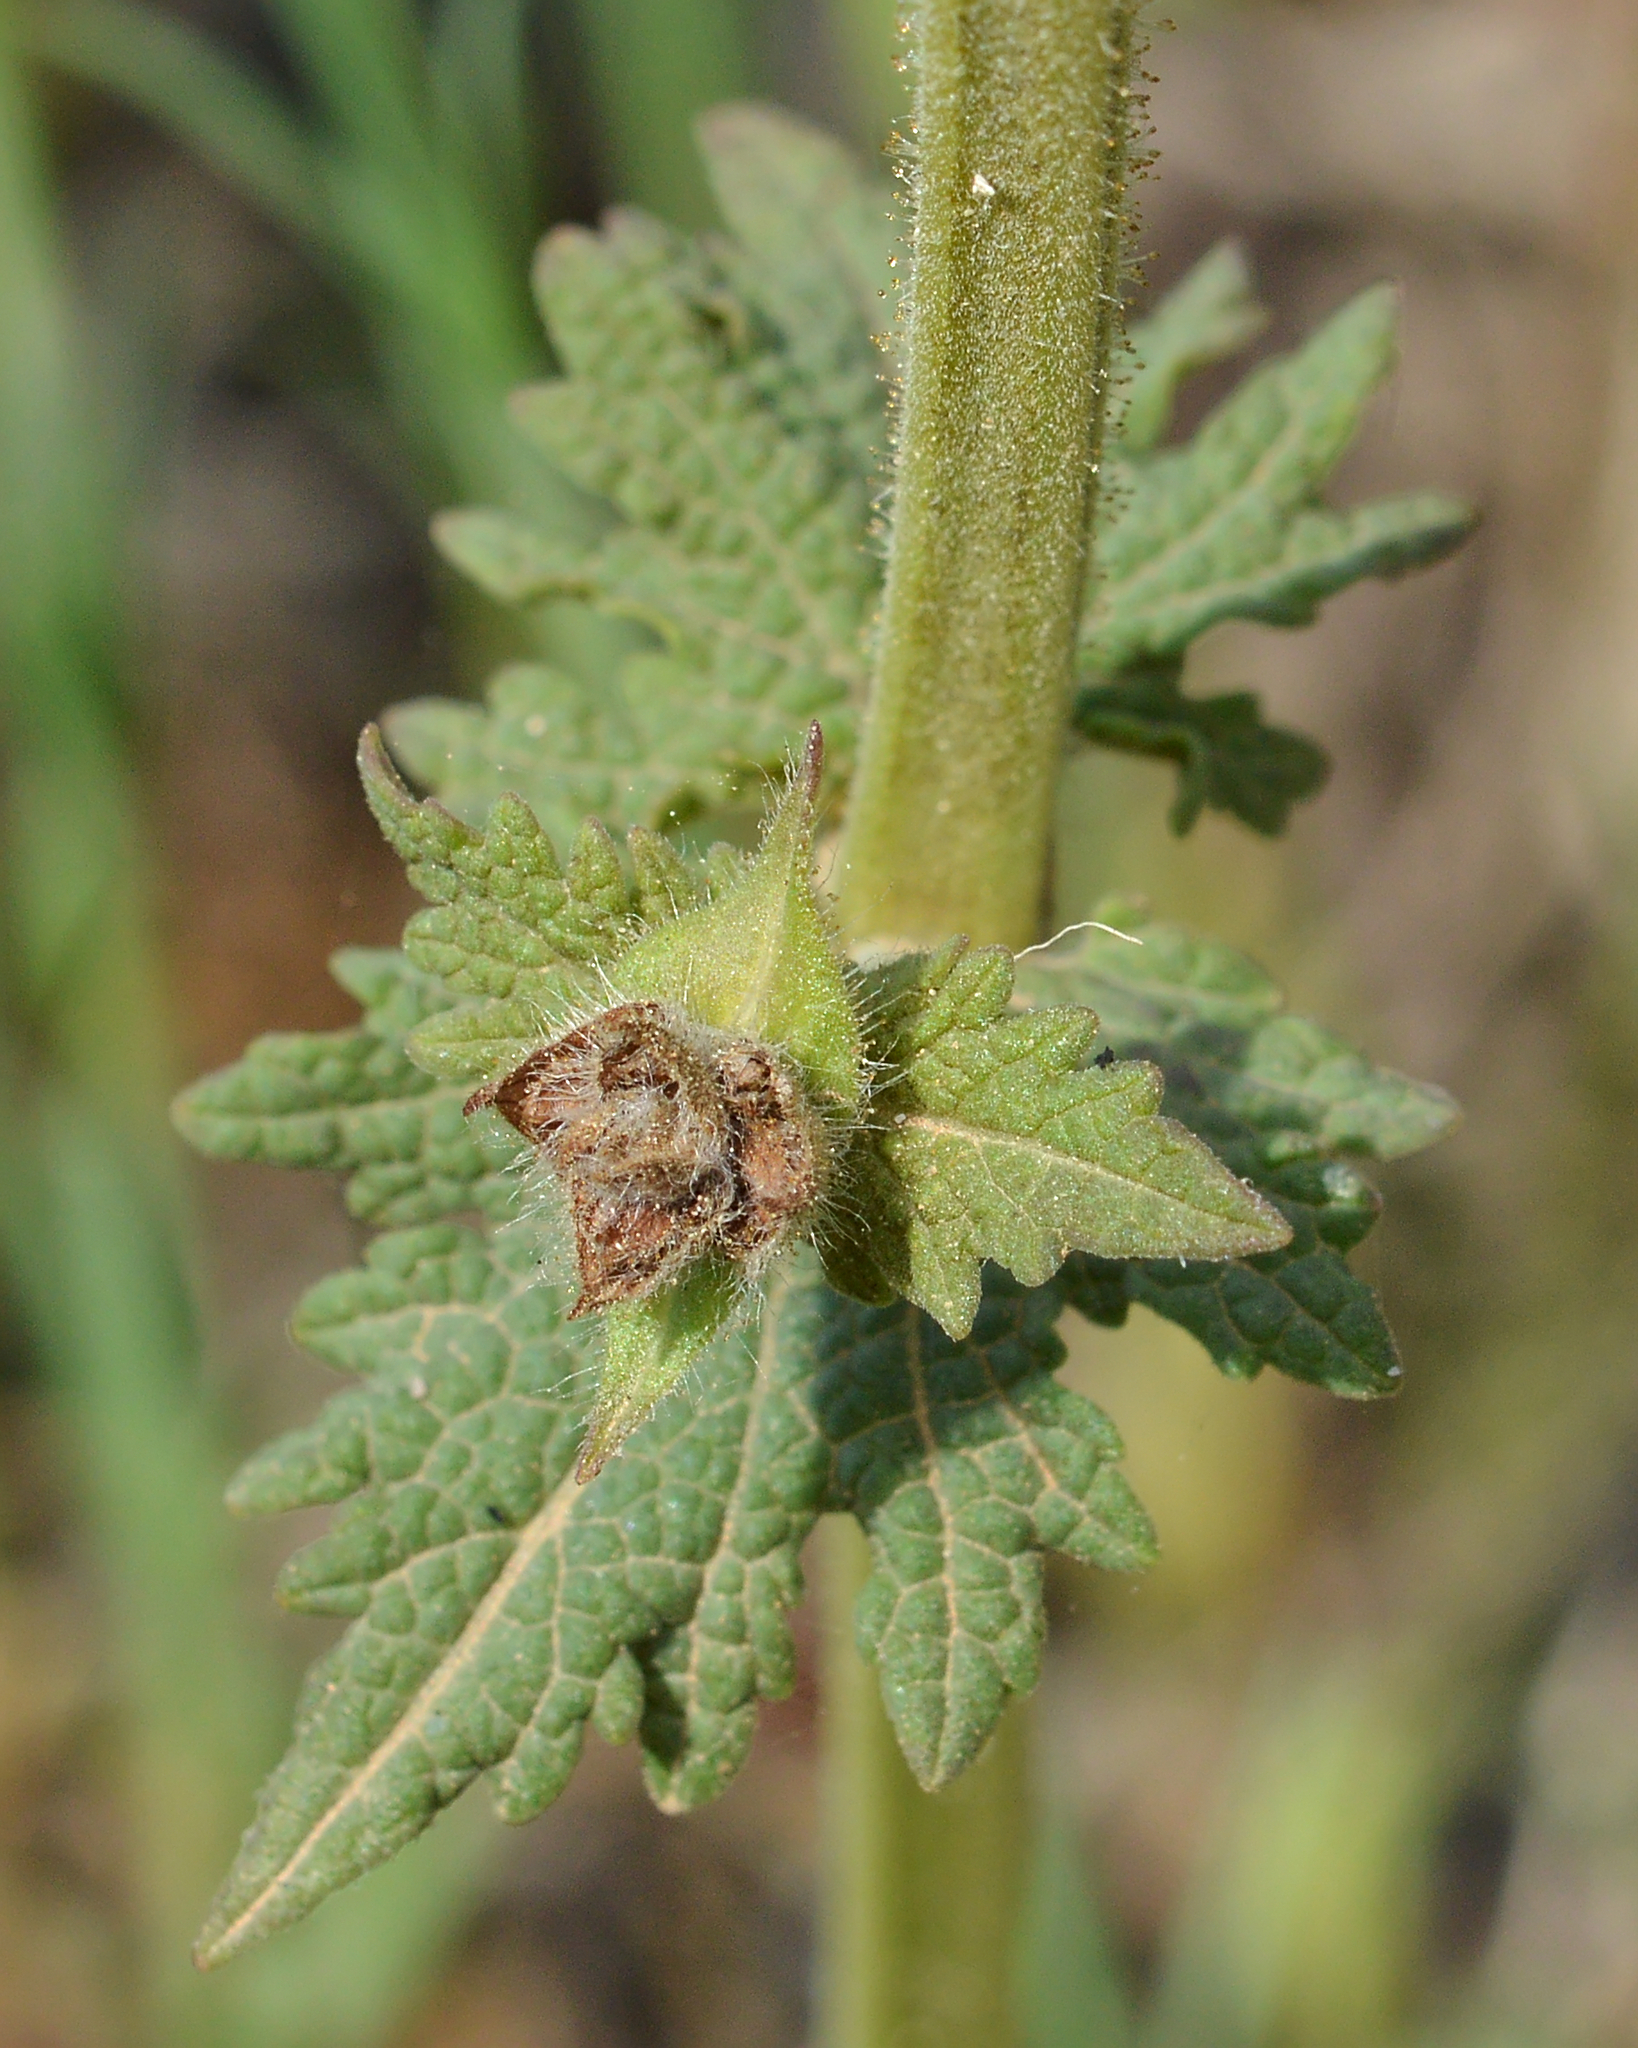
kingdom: Plantae
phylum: Tracheophyta
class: Magnoliopsida
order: Lamiales
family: Lamiaceae
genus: Salvia
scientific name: Salvia verbenaca
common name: Wild clary
